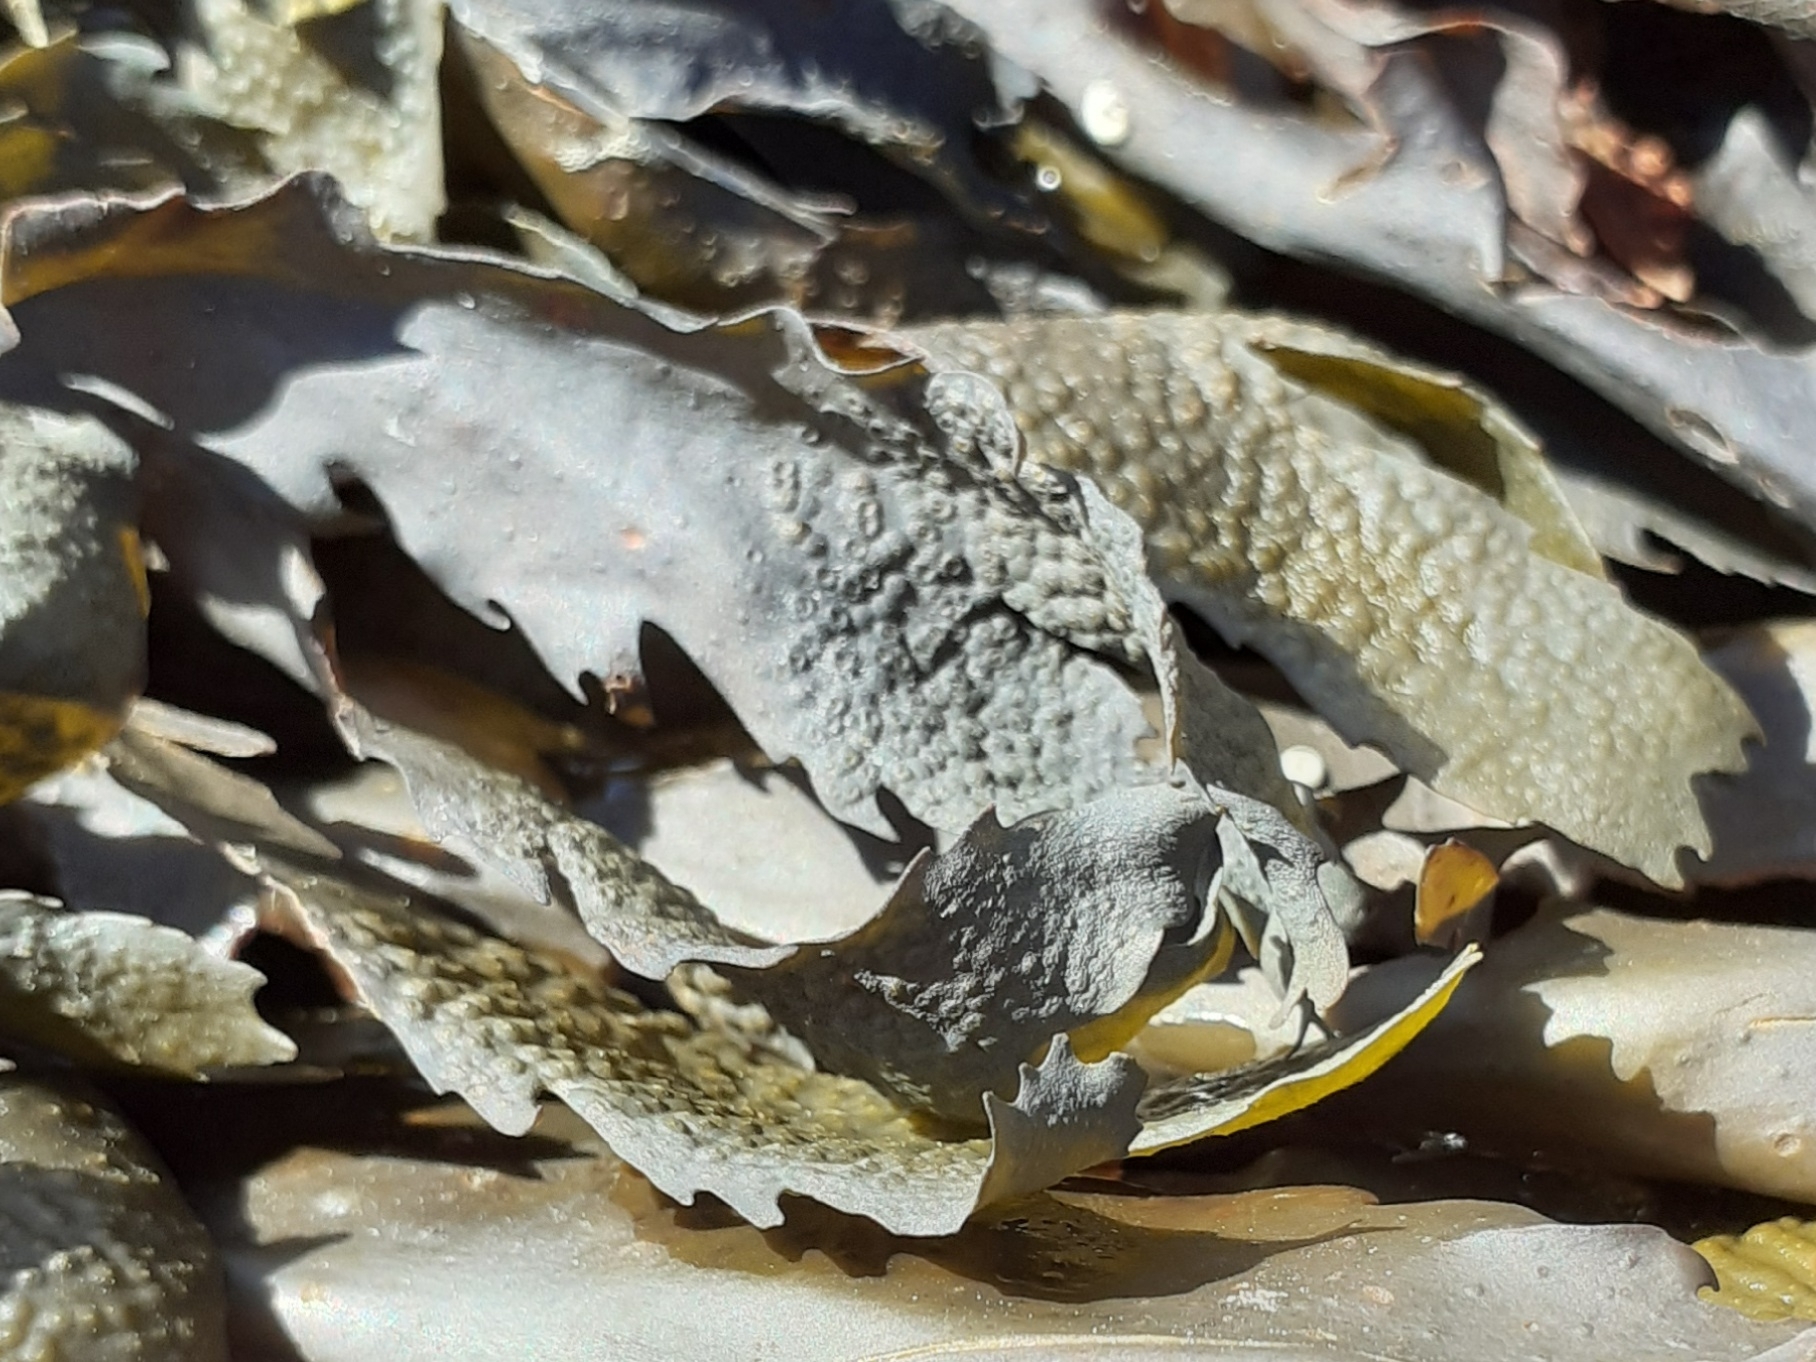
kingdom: Chromista
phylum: Ochrophyta
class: Phaeophyceae
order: Fucales
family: Fucaceae
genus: Fucus
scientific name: Fucus serratus
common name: Toothed wrack
